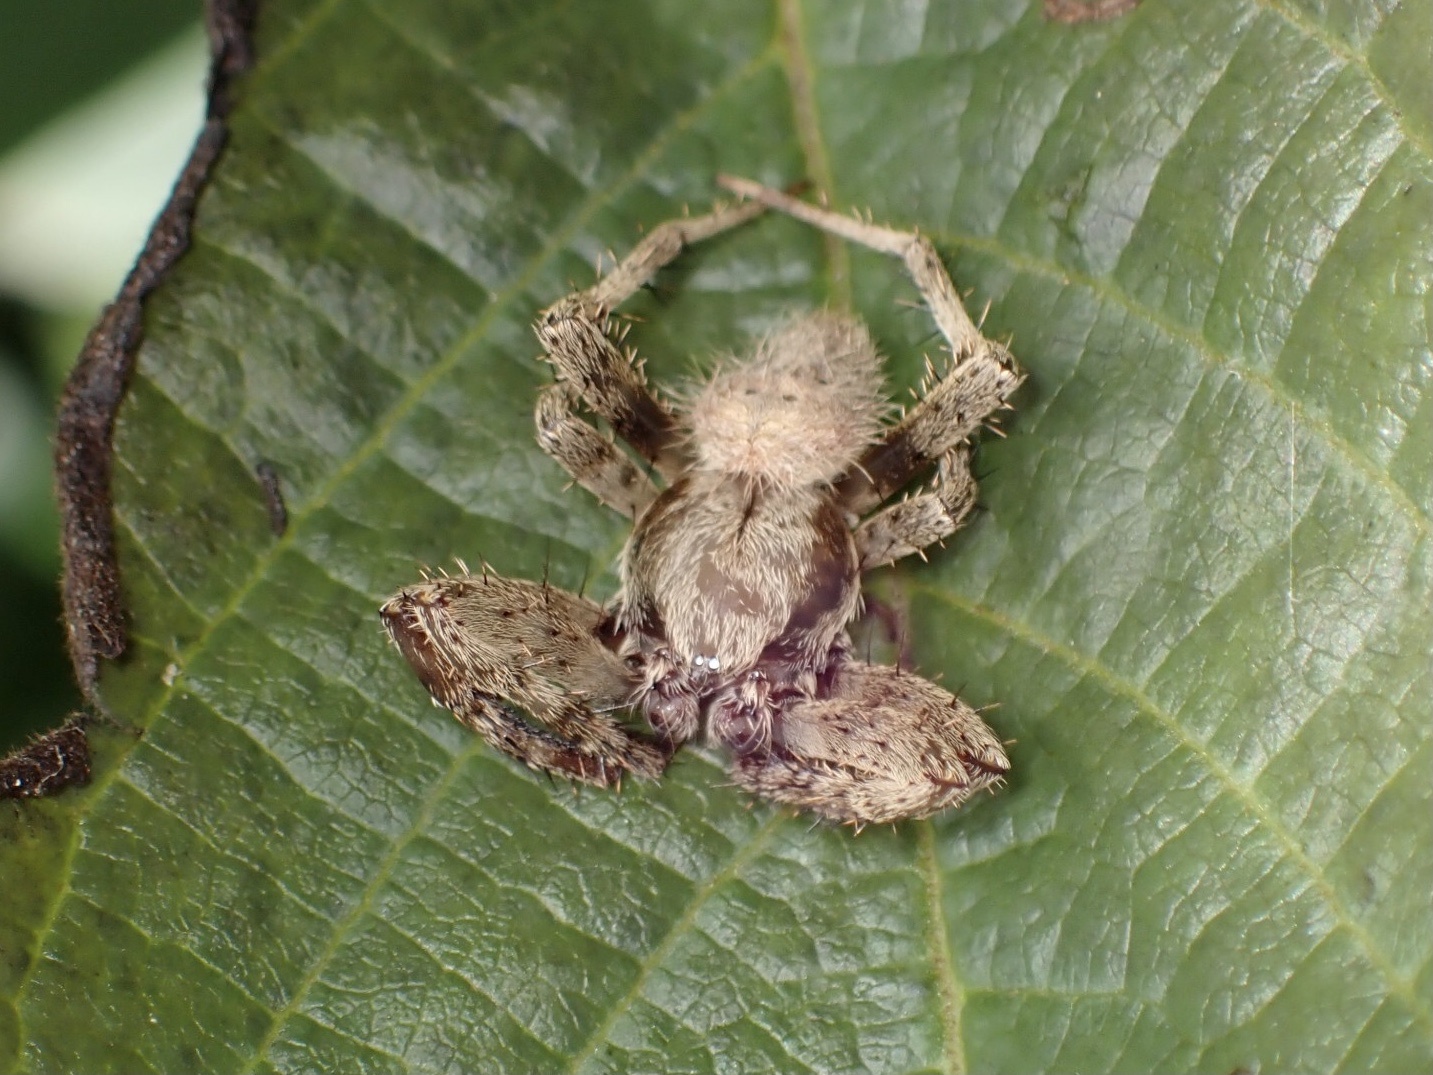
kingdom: Animalia
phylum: Arthropoda
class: Arachnida
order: Araneae
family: Araneidae
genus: Neoscona
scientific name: Neoscona crucifera
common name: Spotted orbweaver
